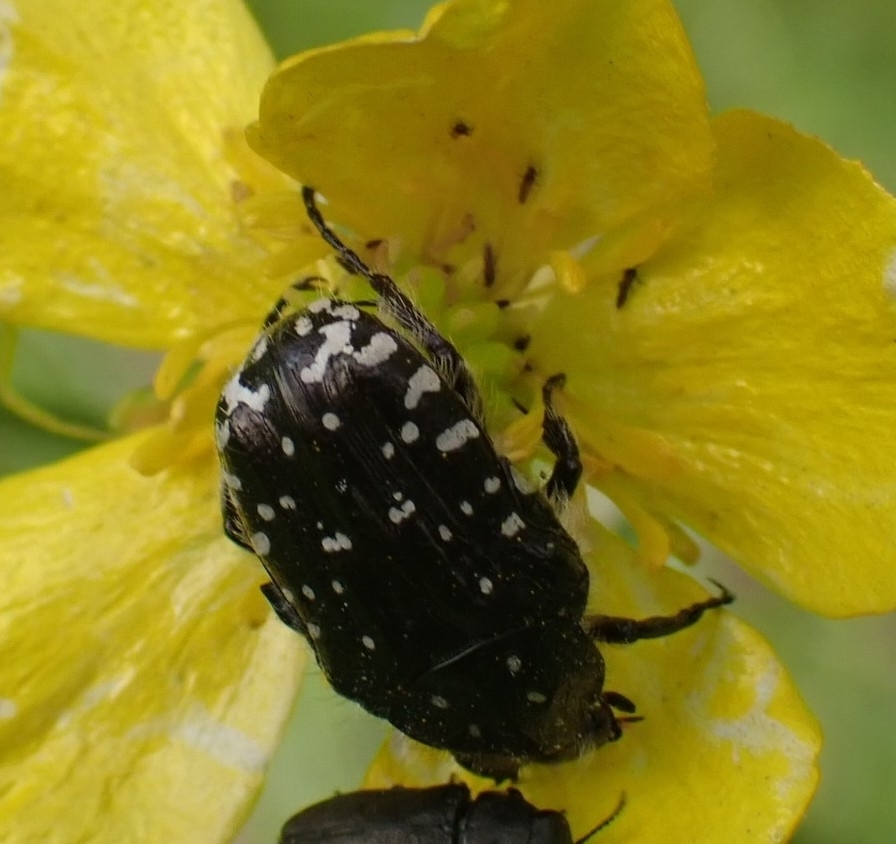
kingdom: Animalia
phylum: Arthropoda
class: Insecta
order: Coleoptera
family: Scarabaeidae
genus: Oxythyrea
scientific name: Oxythyrea funesta
